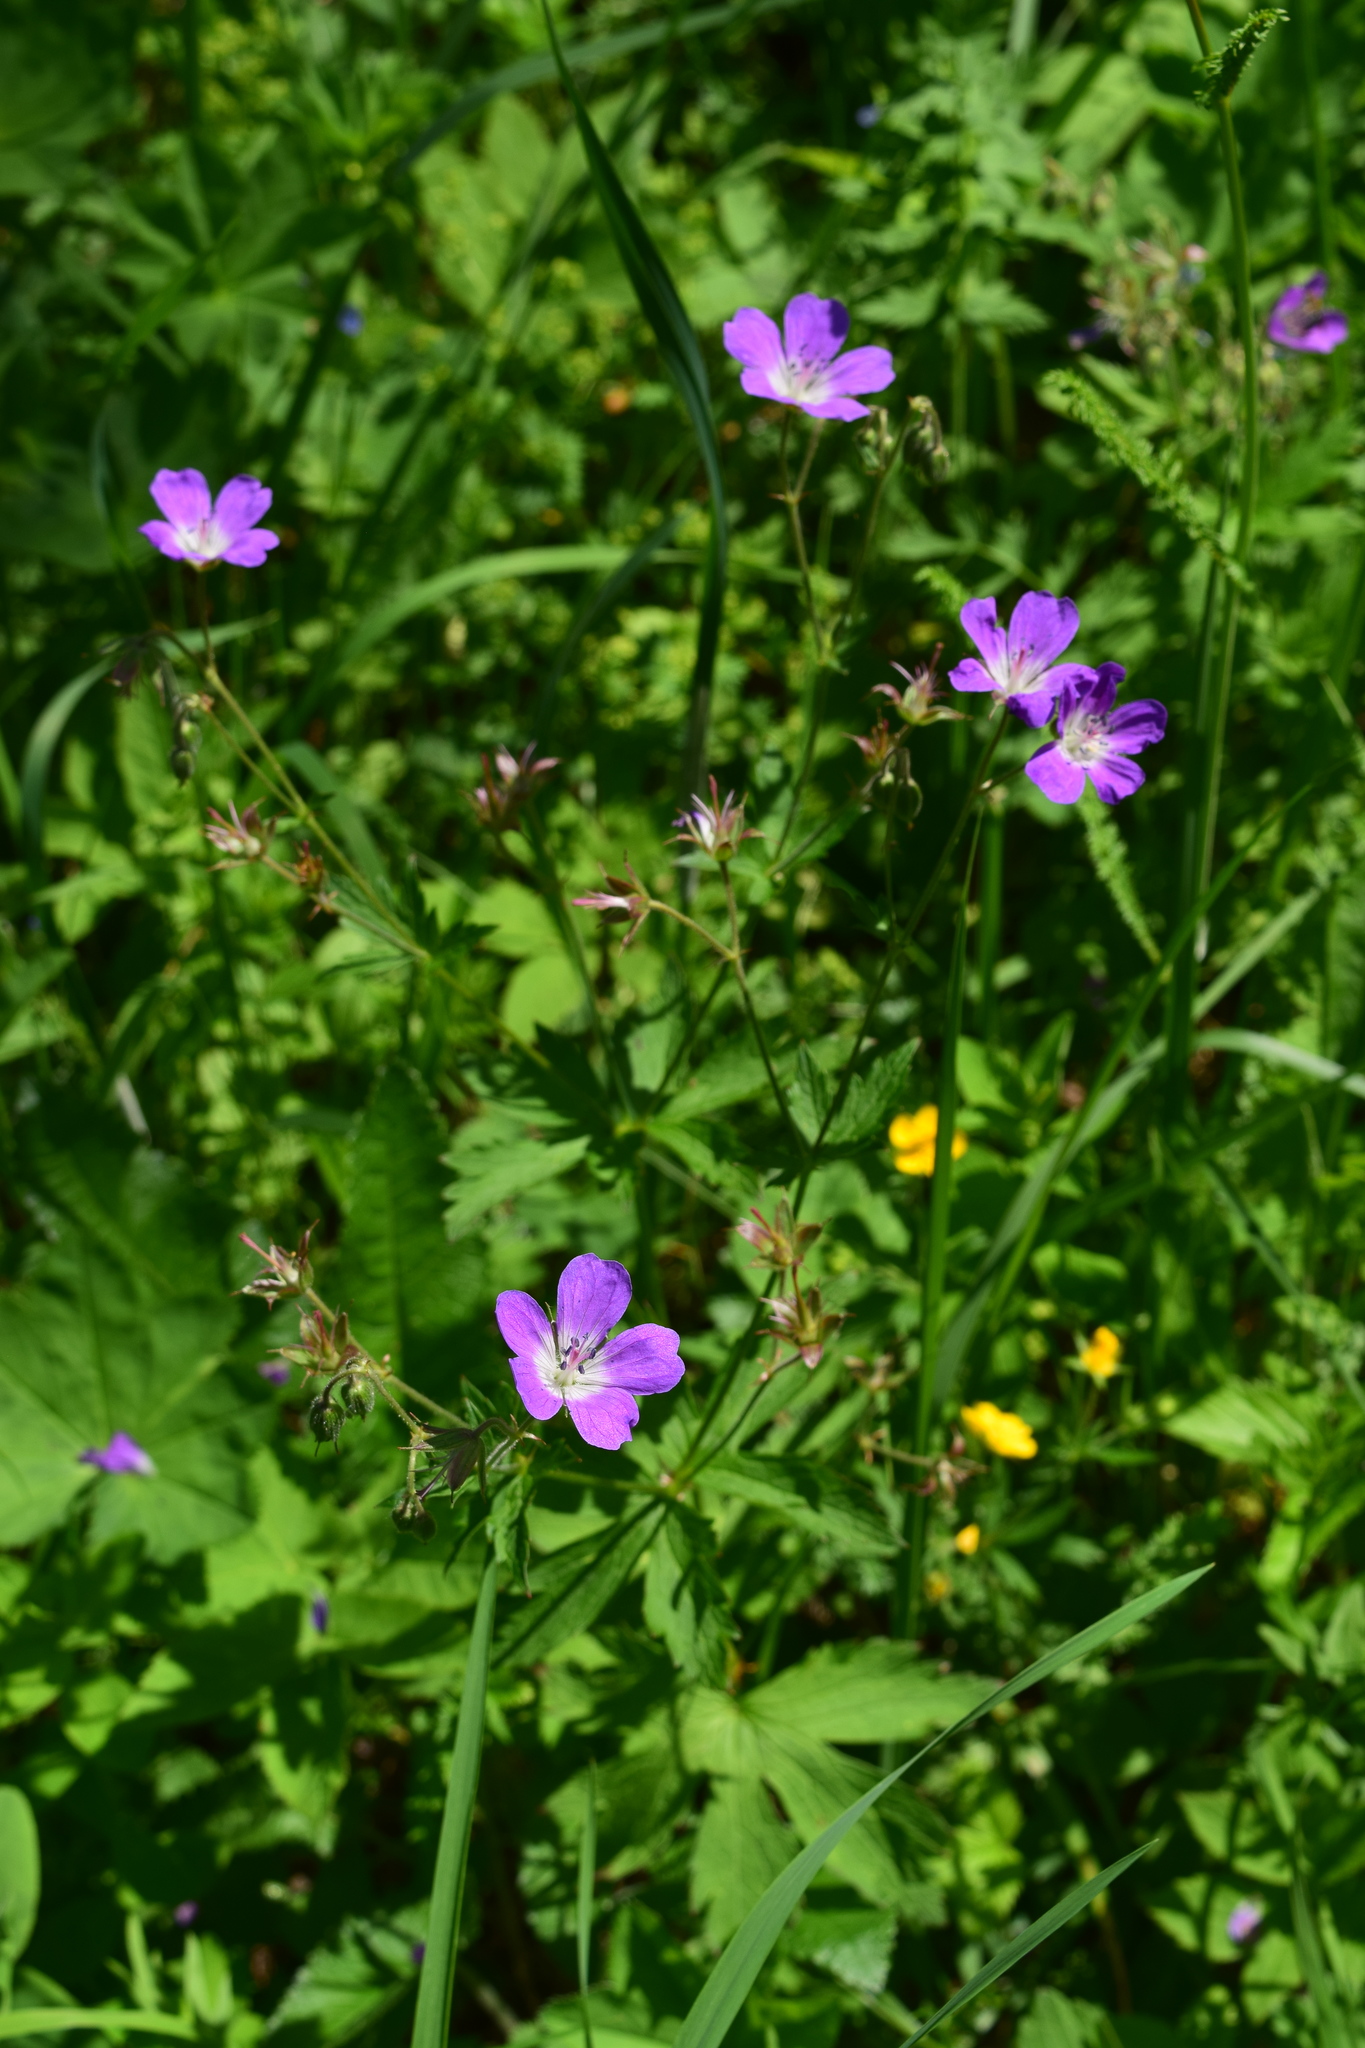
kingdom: Plantae
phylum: Tracheophyta
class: Magnoliopsida
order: Geraniales
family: Geraniaceae
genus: Geranium
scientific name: Geranium sylvaticum
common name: Wood crane's-bill
